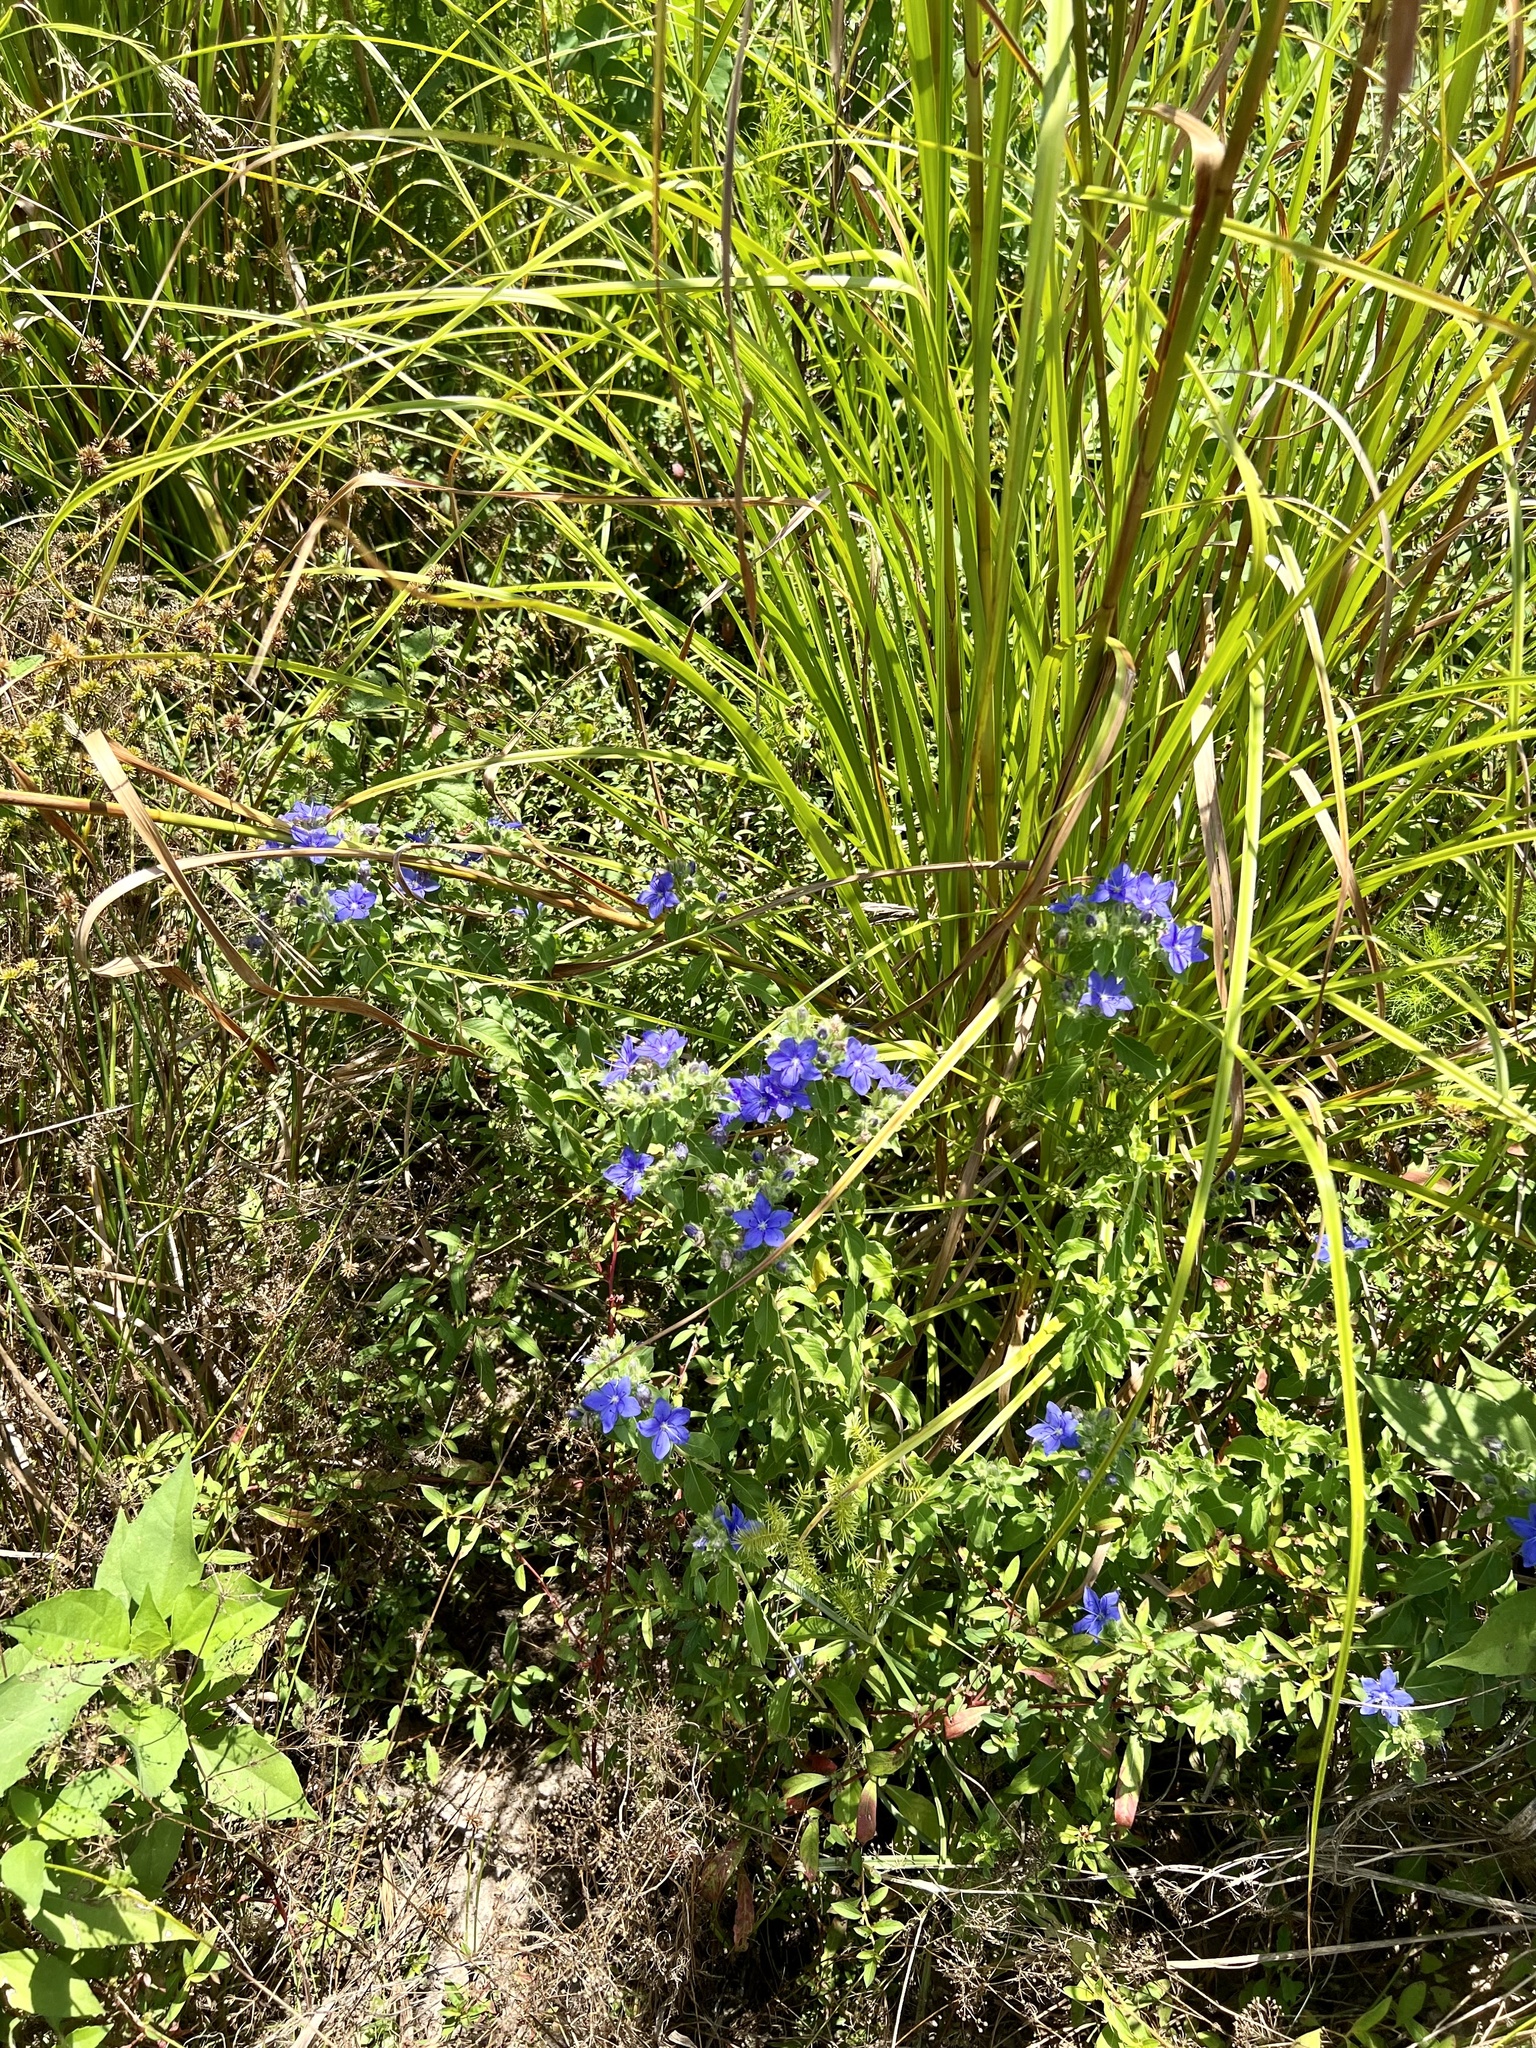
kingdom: Plantae
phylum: Tracheophyta
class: Magnoliopsida
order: Solanales
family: Hydroleaceae
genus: Hydrolea
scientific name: Hydrolea ovata
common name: Ovate false fiddleleaf
